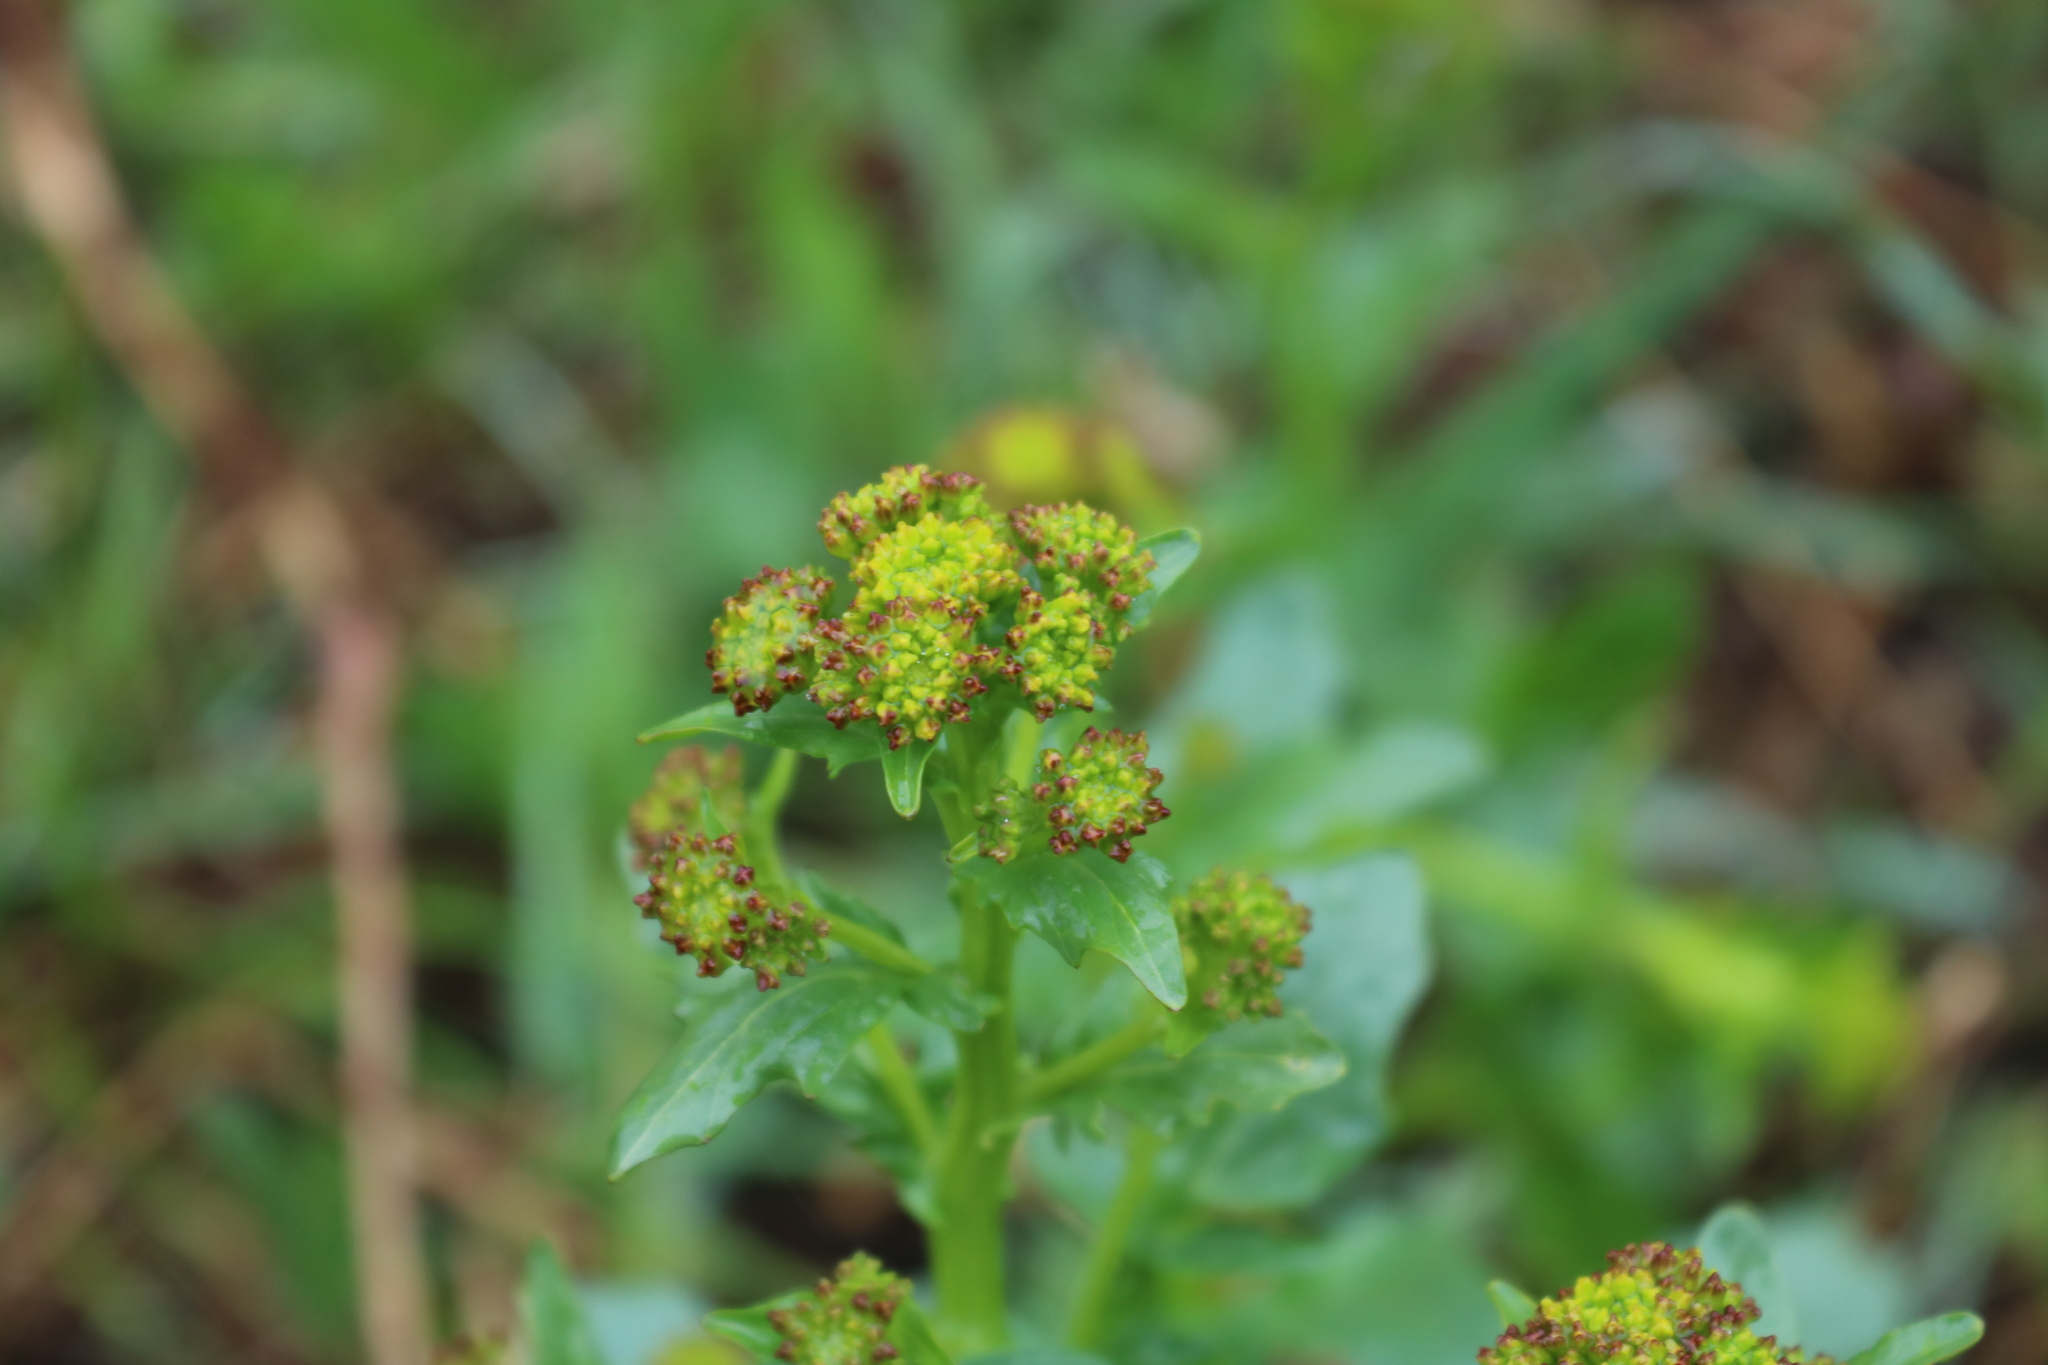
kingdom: Plantae
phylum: Tracheophyta
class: Magnoliopsida
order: Brassicales
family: Brassicaceae
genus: Barbarea
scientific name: Barbarea vulgaris
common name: Cressy-greens
